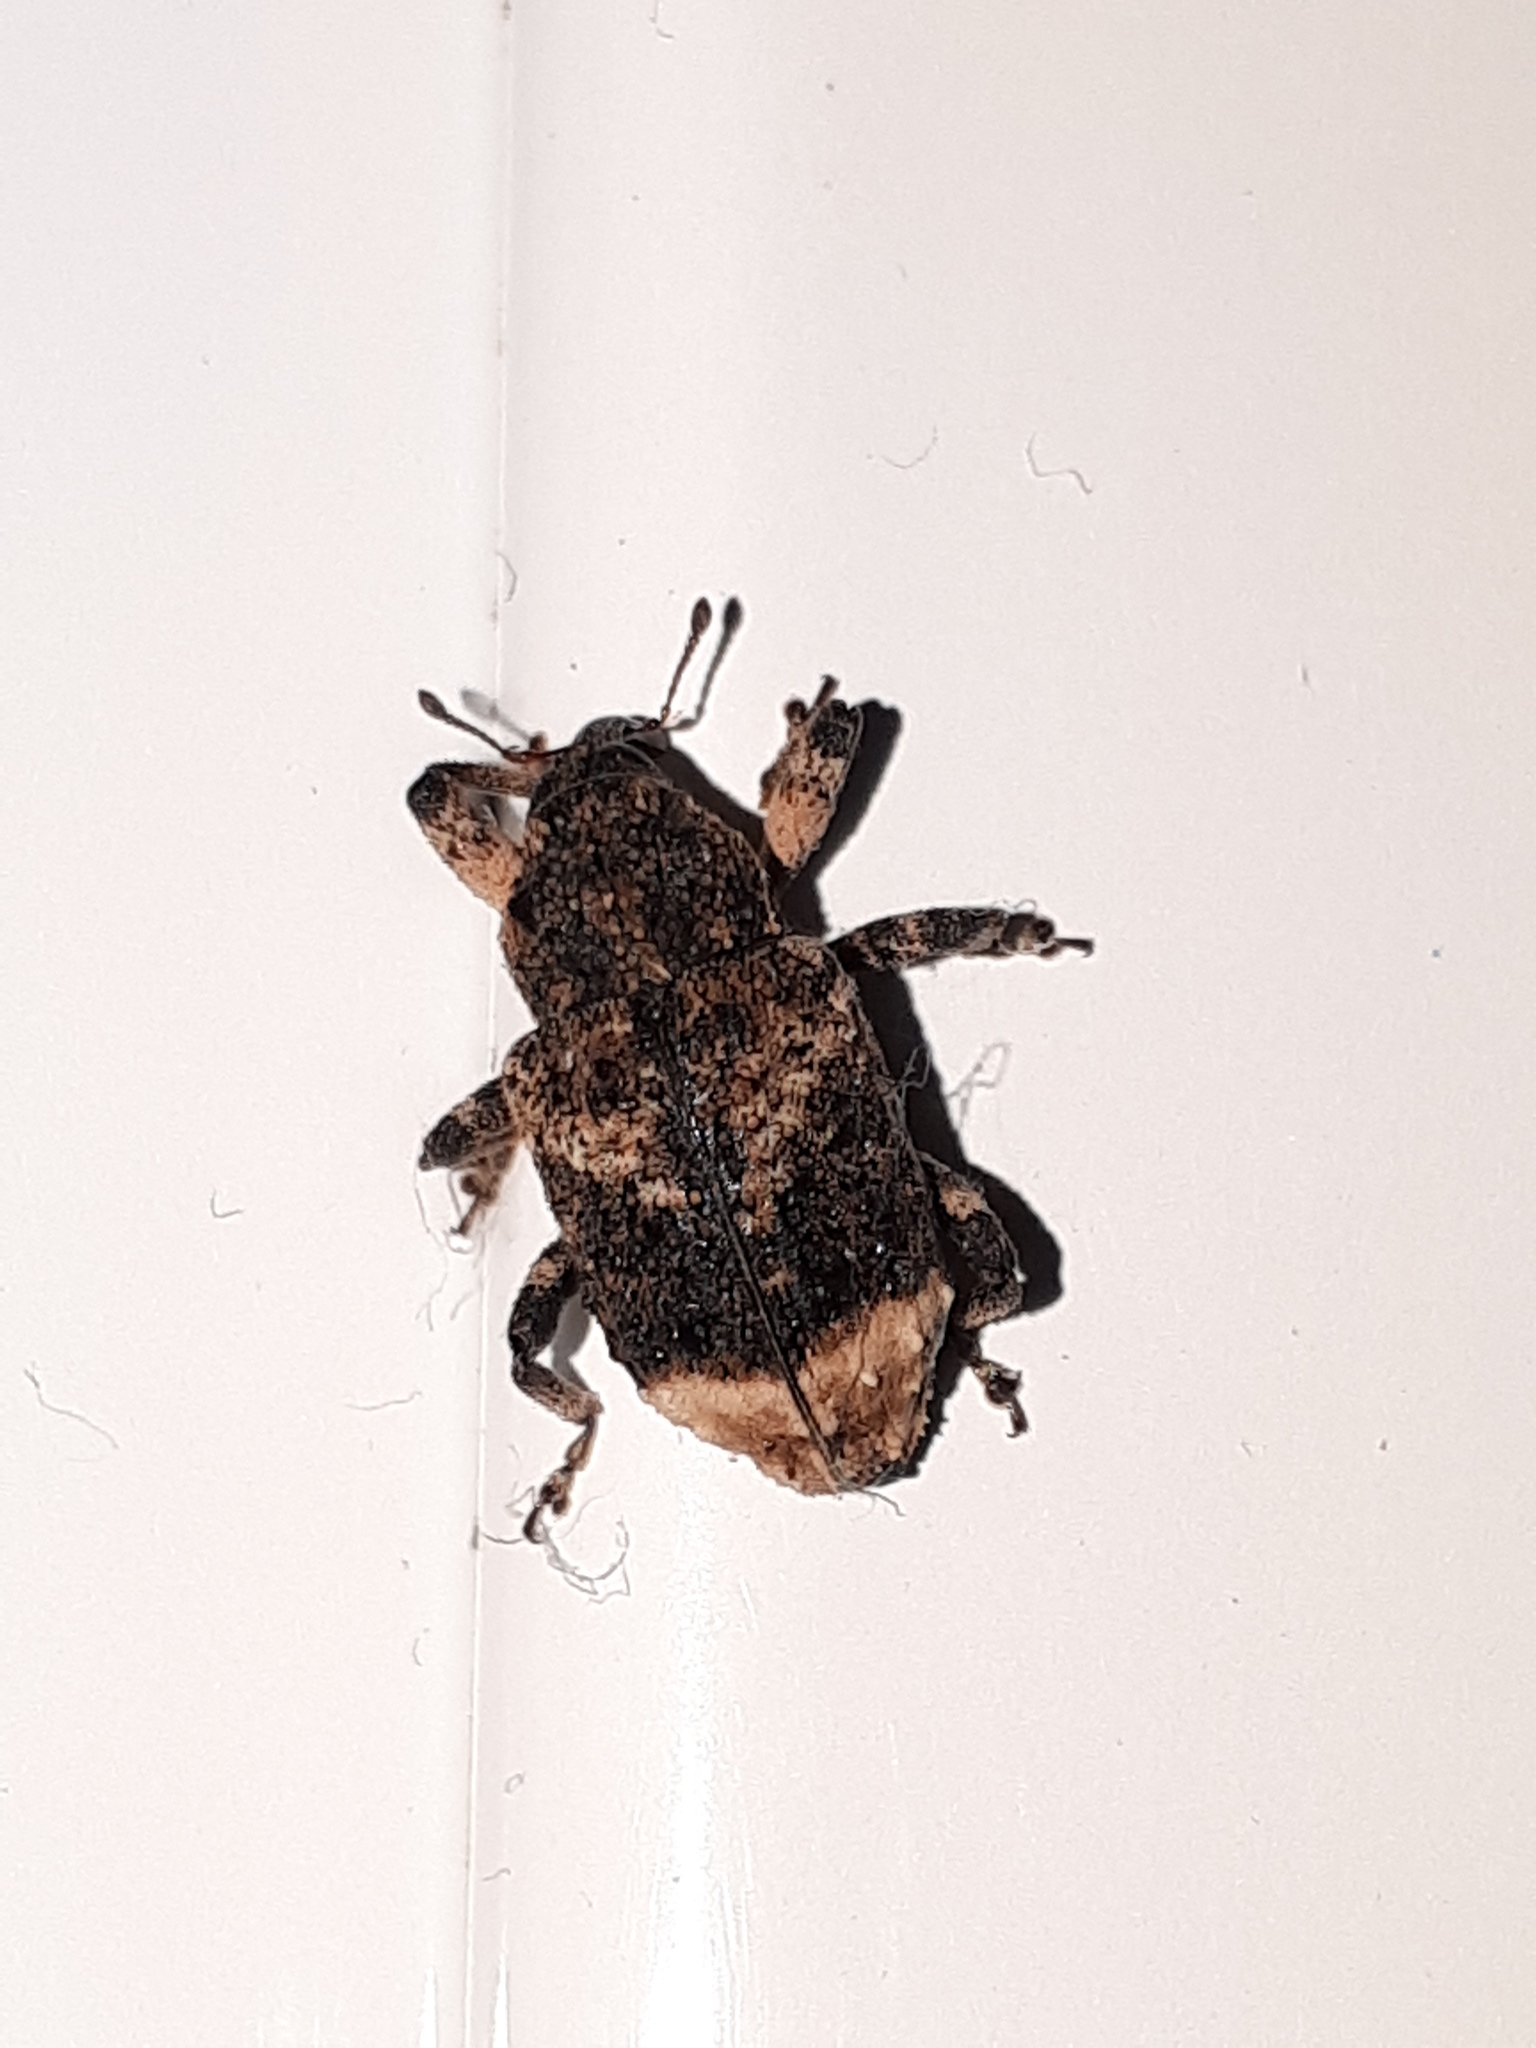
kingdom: Animalia
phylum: Arthropoda
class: Insecta
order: Coleoptera
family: Curculionidae
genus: Cryptorhynchus
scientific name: Cryptorhynchus lapathi
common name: Weevil
